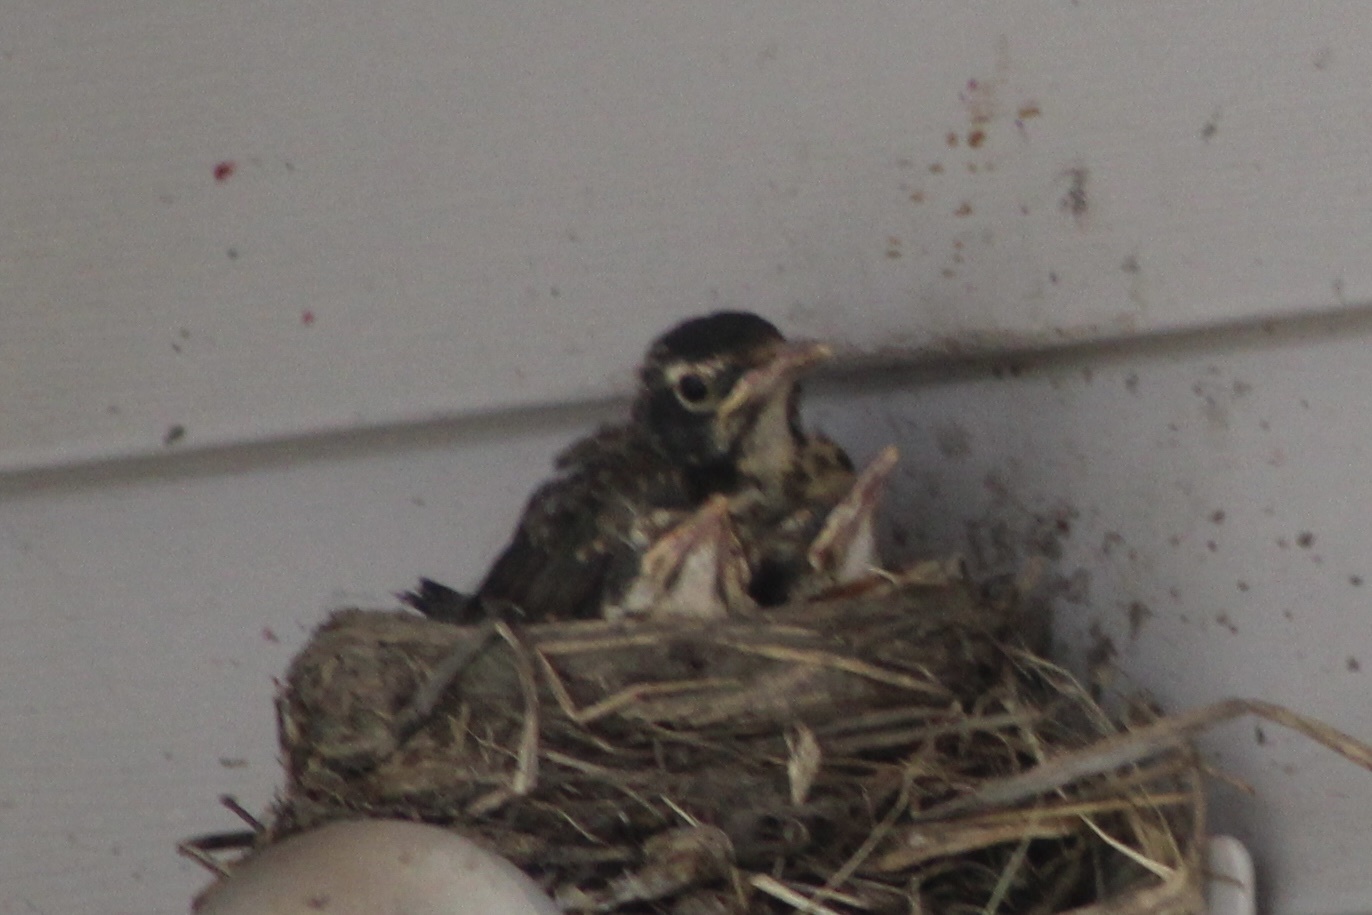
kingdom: Animalia
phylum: Chordata
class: Aves
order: Passeriformes
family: Turdidae
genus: Turdus
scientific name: Turdus migratorius
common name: American robin
